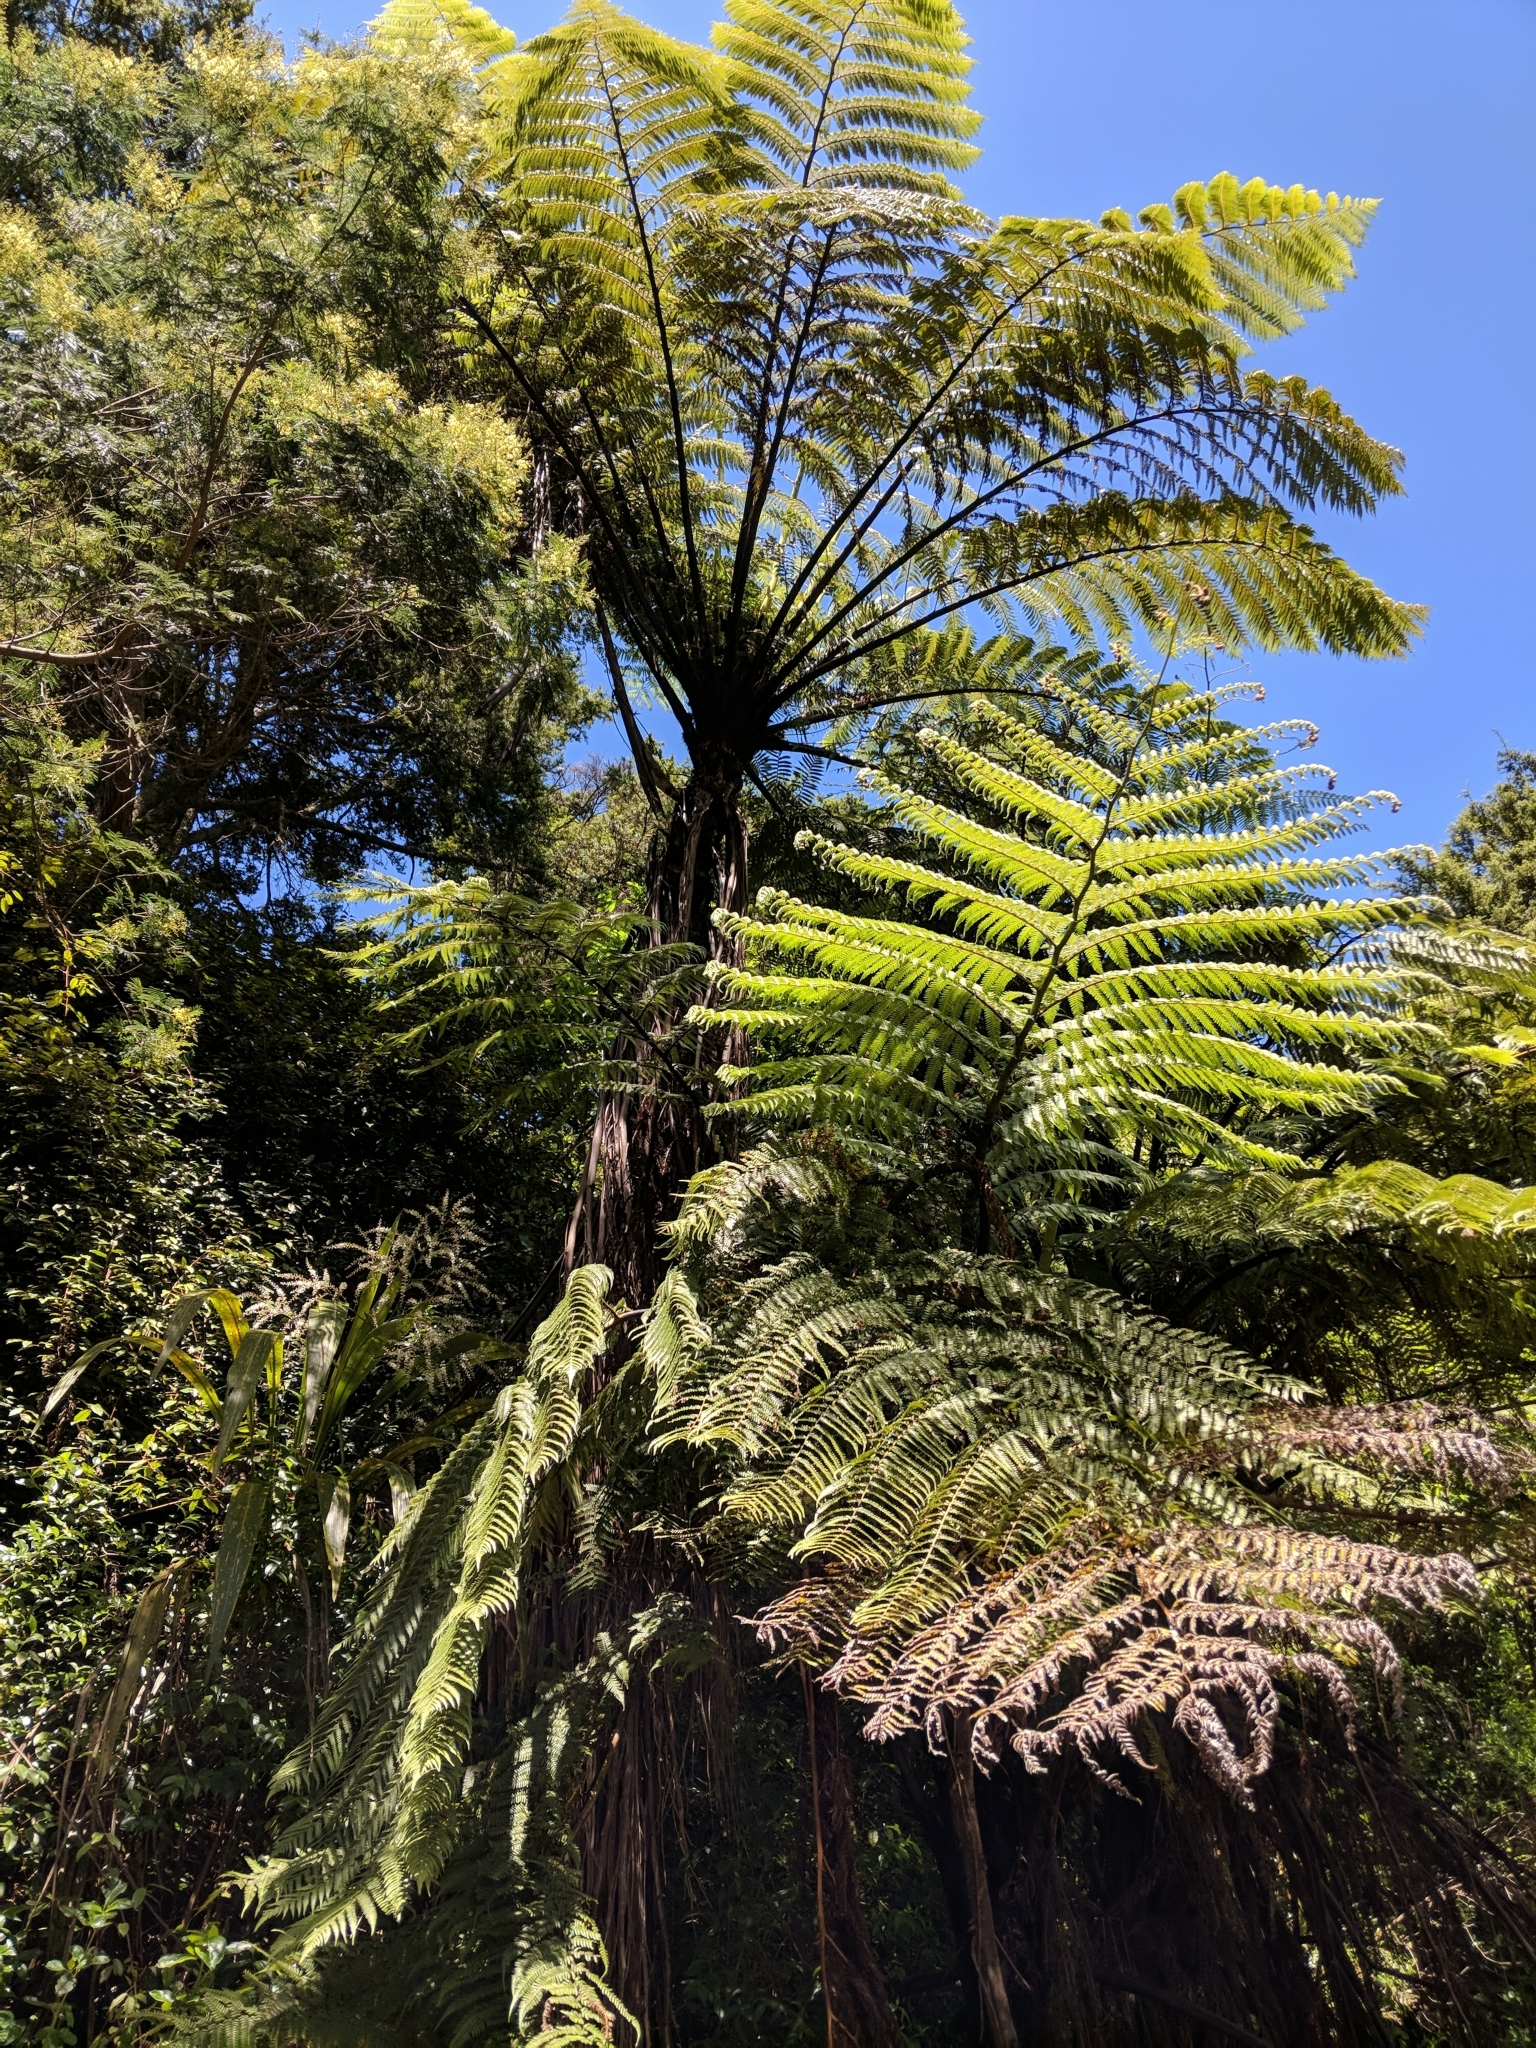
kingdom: Plantae
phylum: Tracheophyta
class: Polypodiopsida
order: Cyatheales
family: Cyatheaceae
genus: Sphaeropteris
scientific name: Sphaeropteris medullaris
